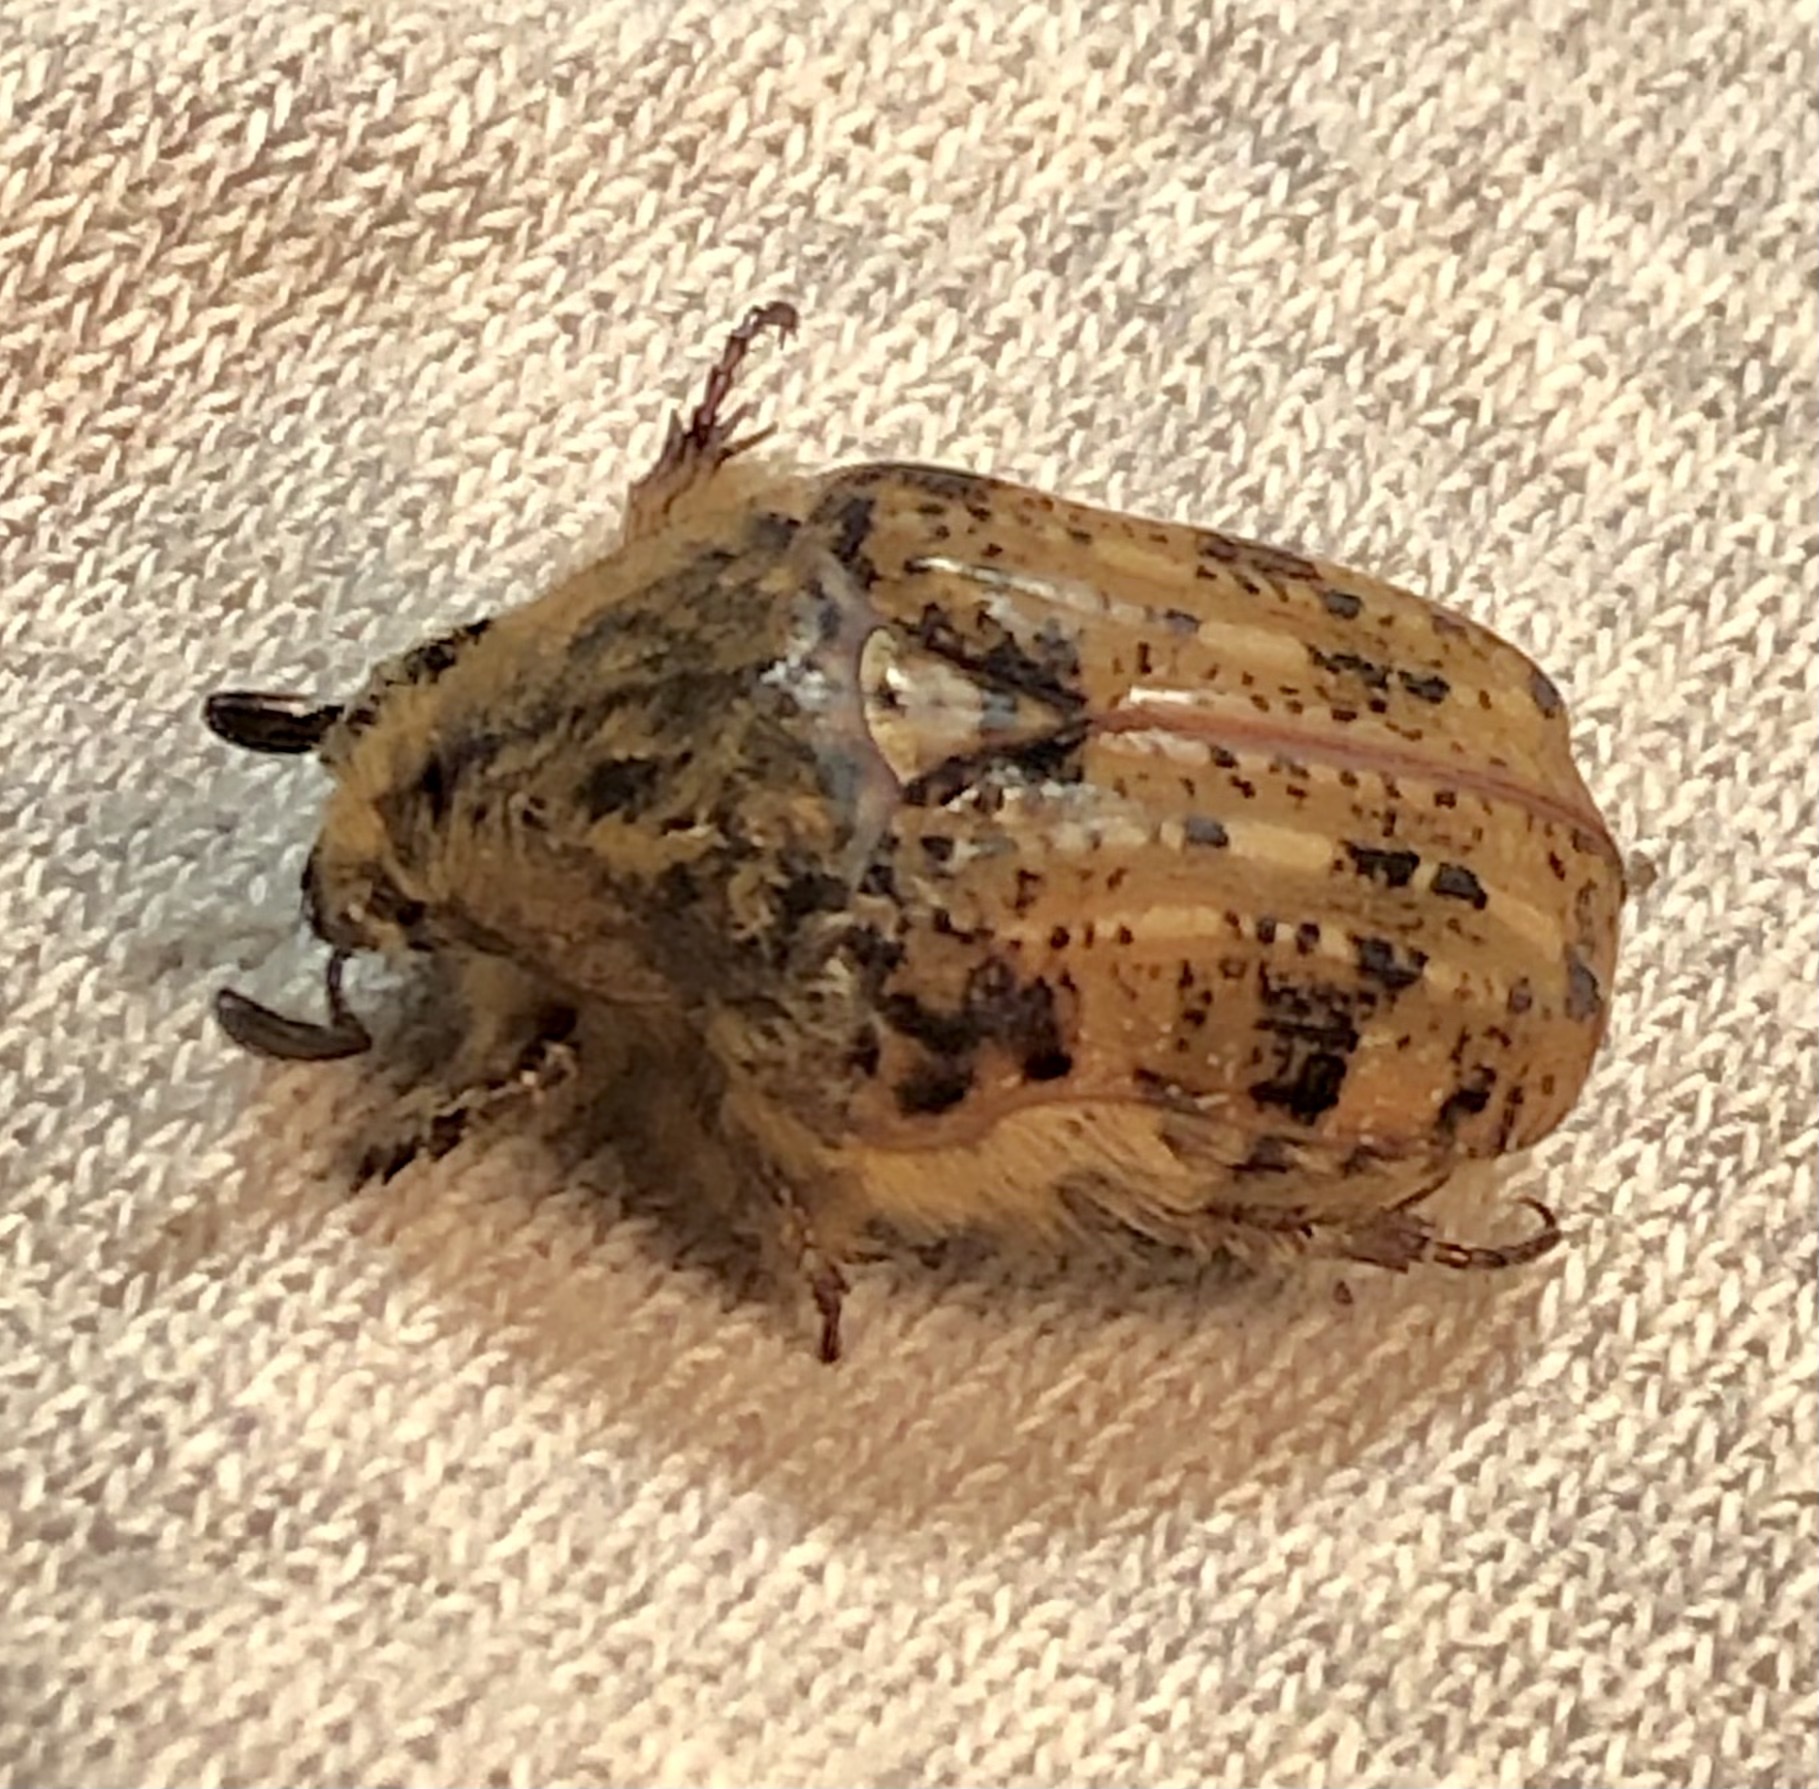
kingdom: Animalia
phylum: Arthropoda
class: Insecta
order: Coleoptera
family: Scarabaeidae
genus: Euphoria
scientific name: Euphoria inda
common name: Bumble flower beetle
